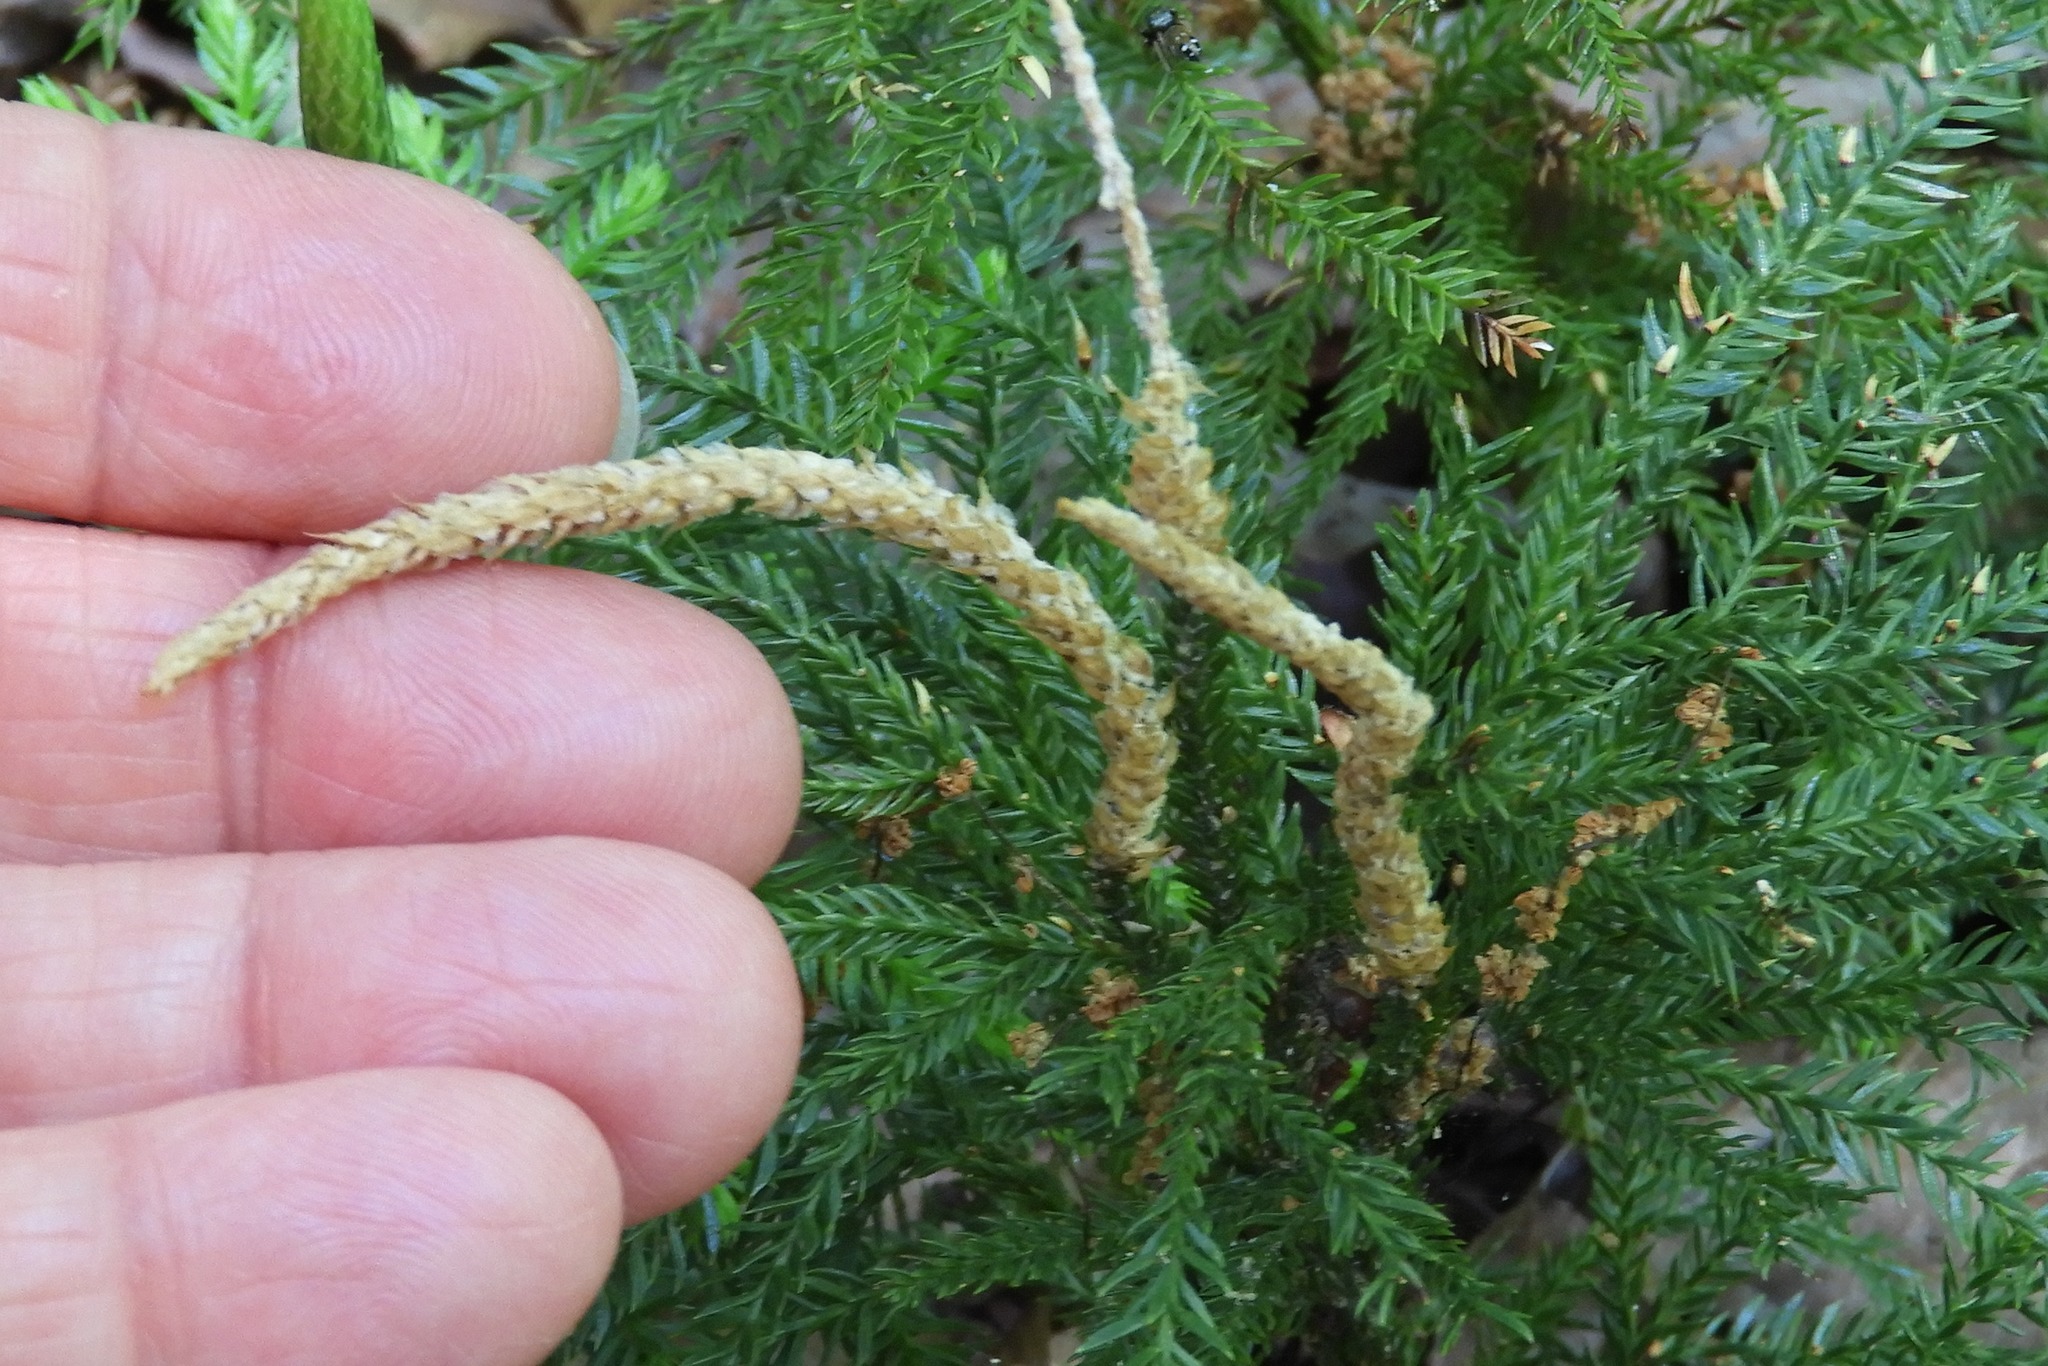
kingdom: Plantae
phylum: Tracheophyta
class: Lycopodiopsida
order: Lycopodiales
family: Lycopodiaceae
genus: Dendrolycopodium
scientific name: Dendrolycopodium obscurum
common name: Common ground-pine
